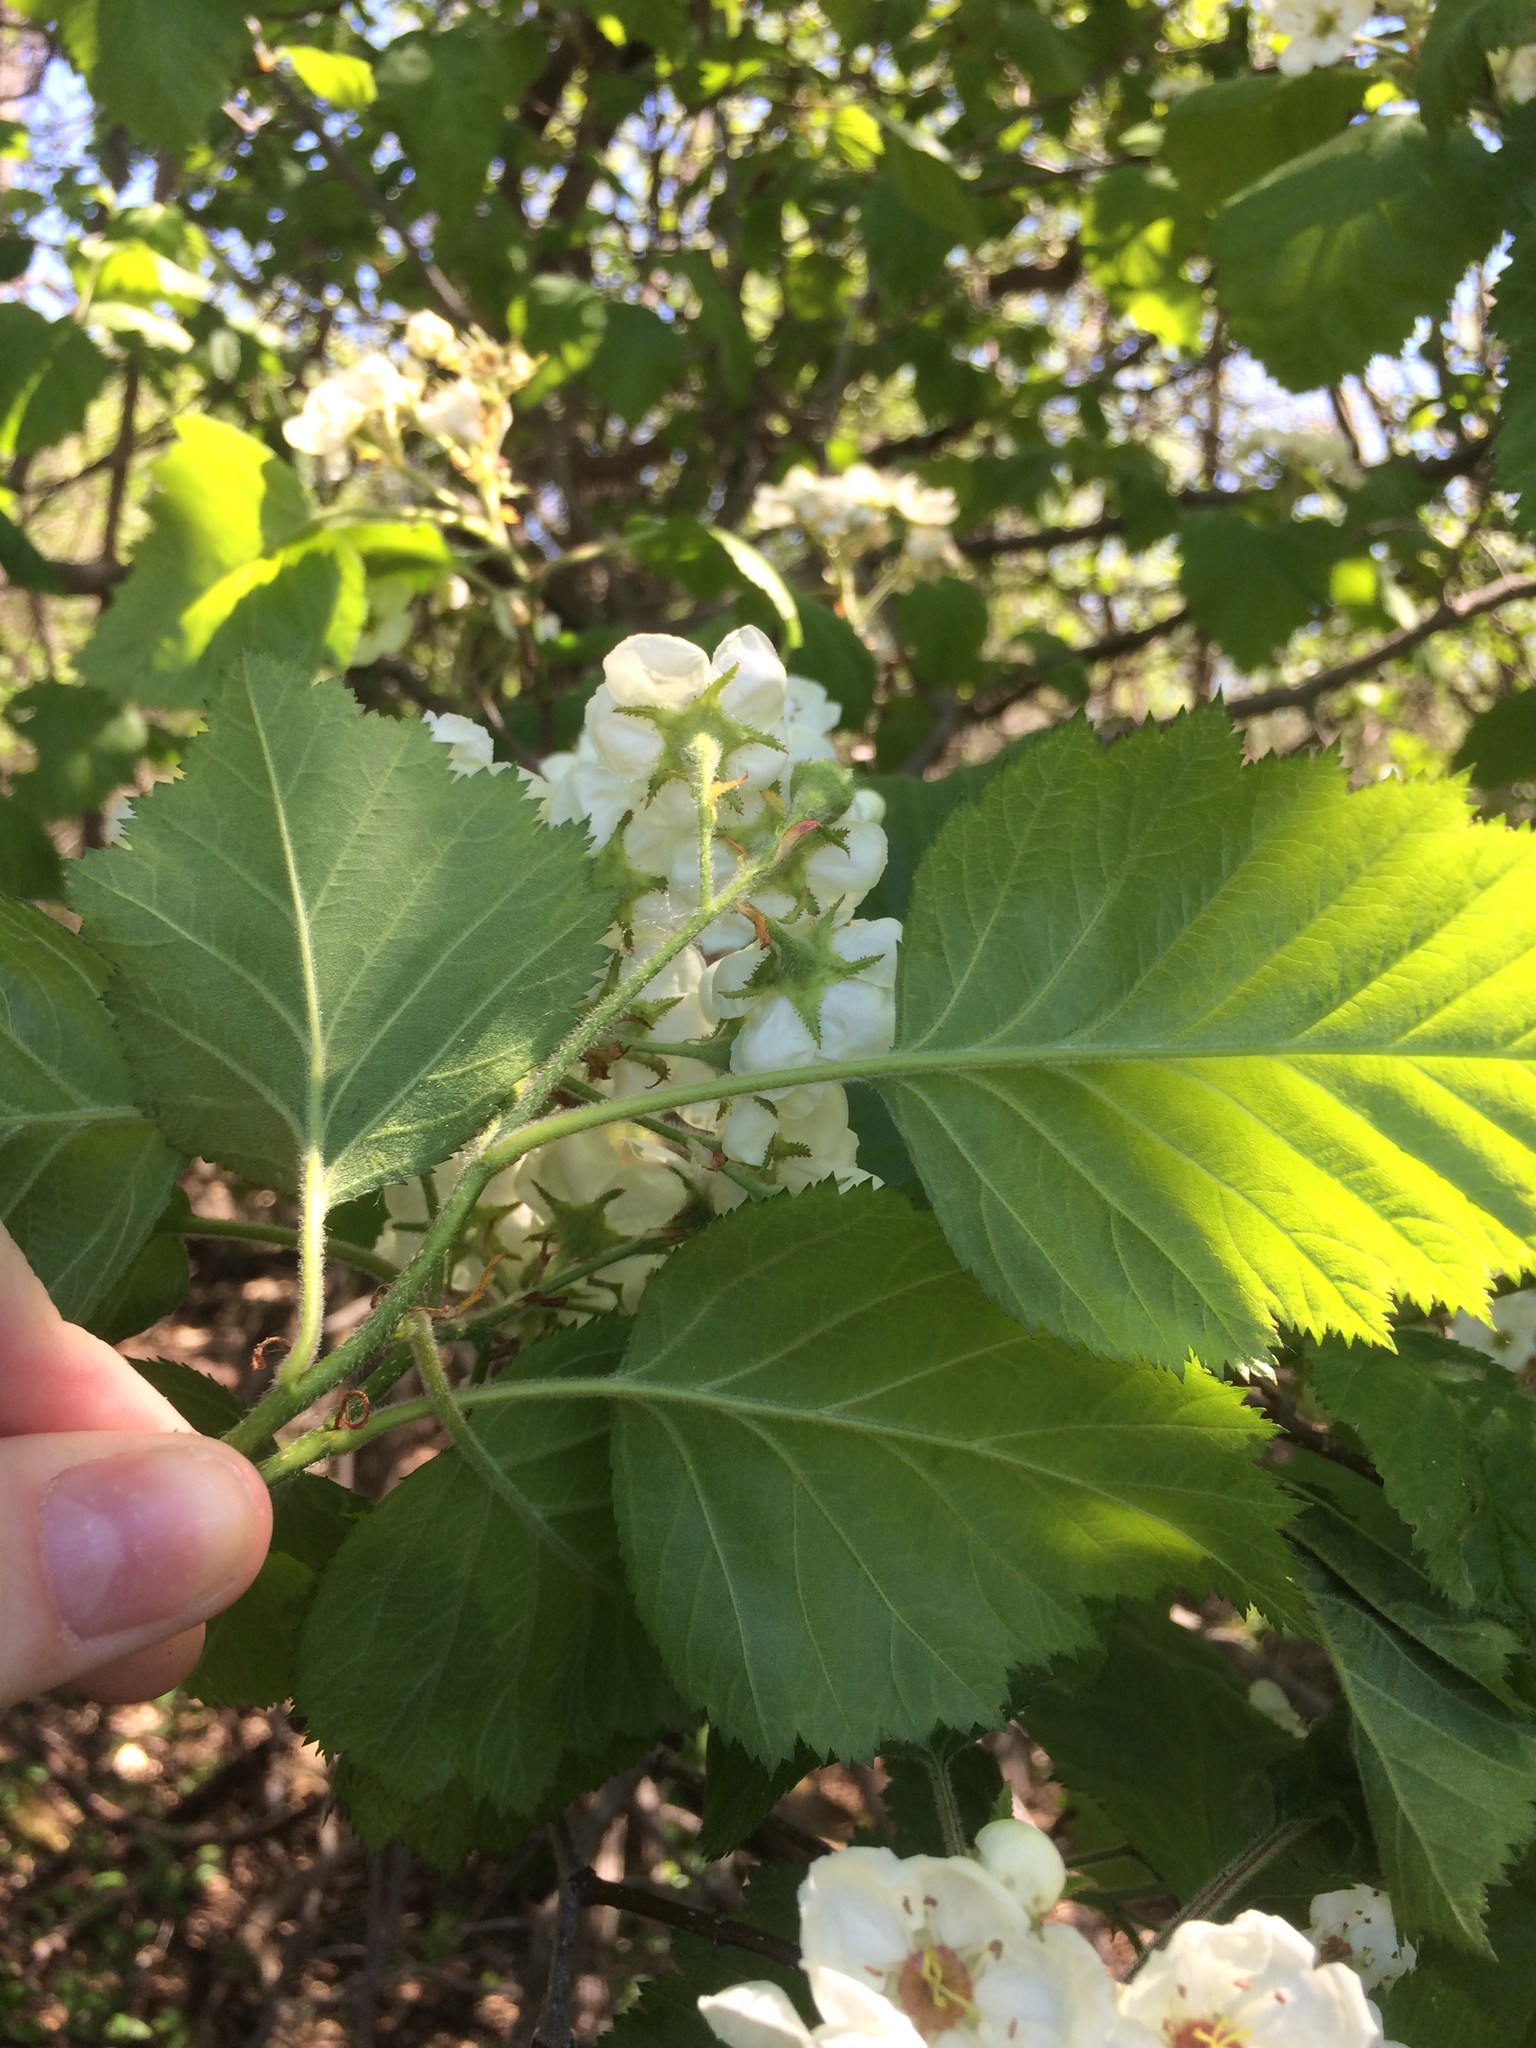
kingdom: Plantae
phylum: Tracheophyta
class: Magnoliopsida
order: Rosales
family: Rosaceae
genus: Crataegus
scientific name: Crataegus submollis
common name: Hairy cockspurthorn
